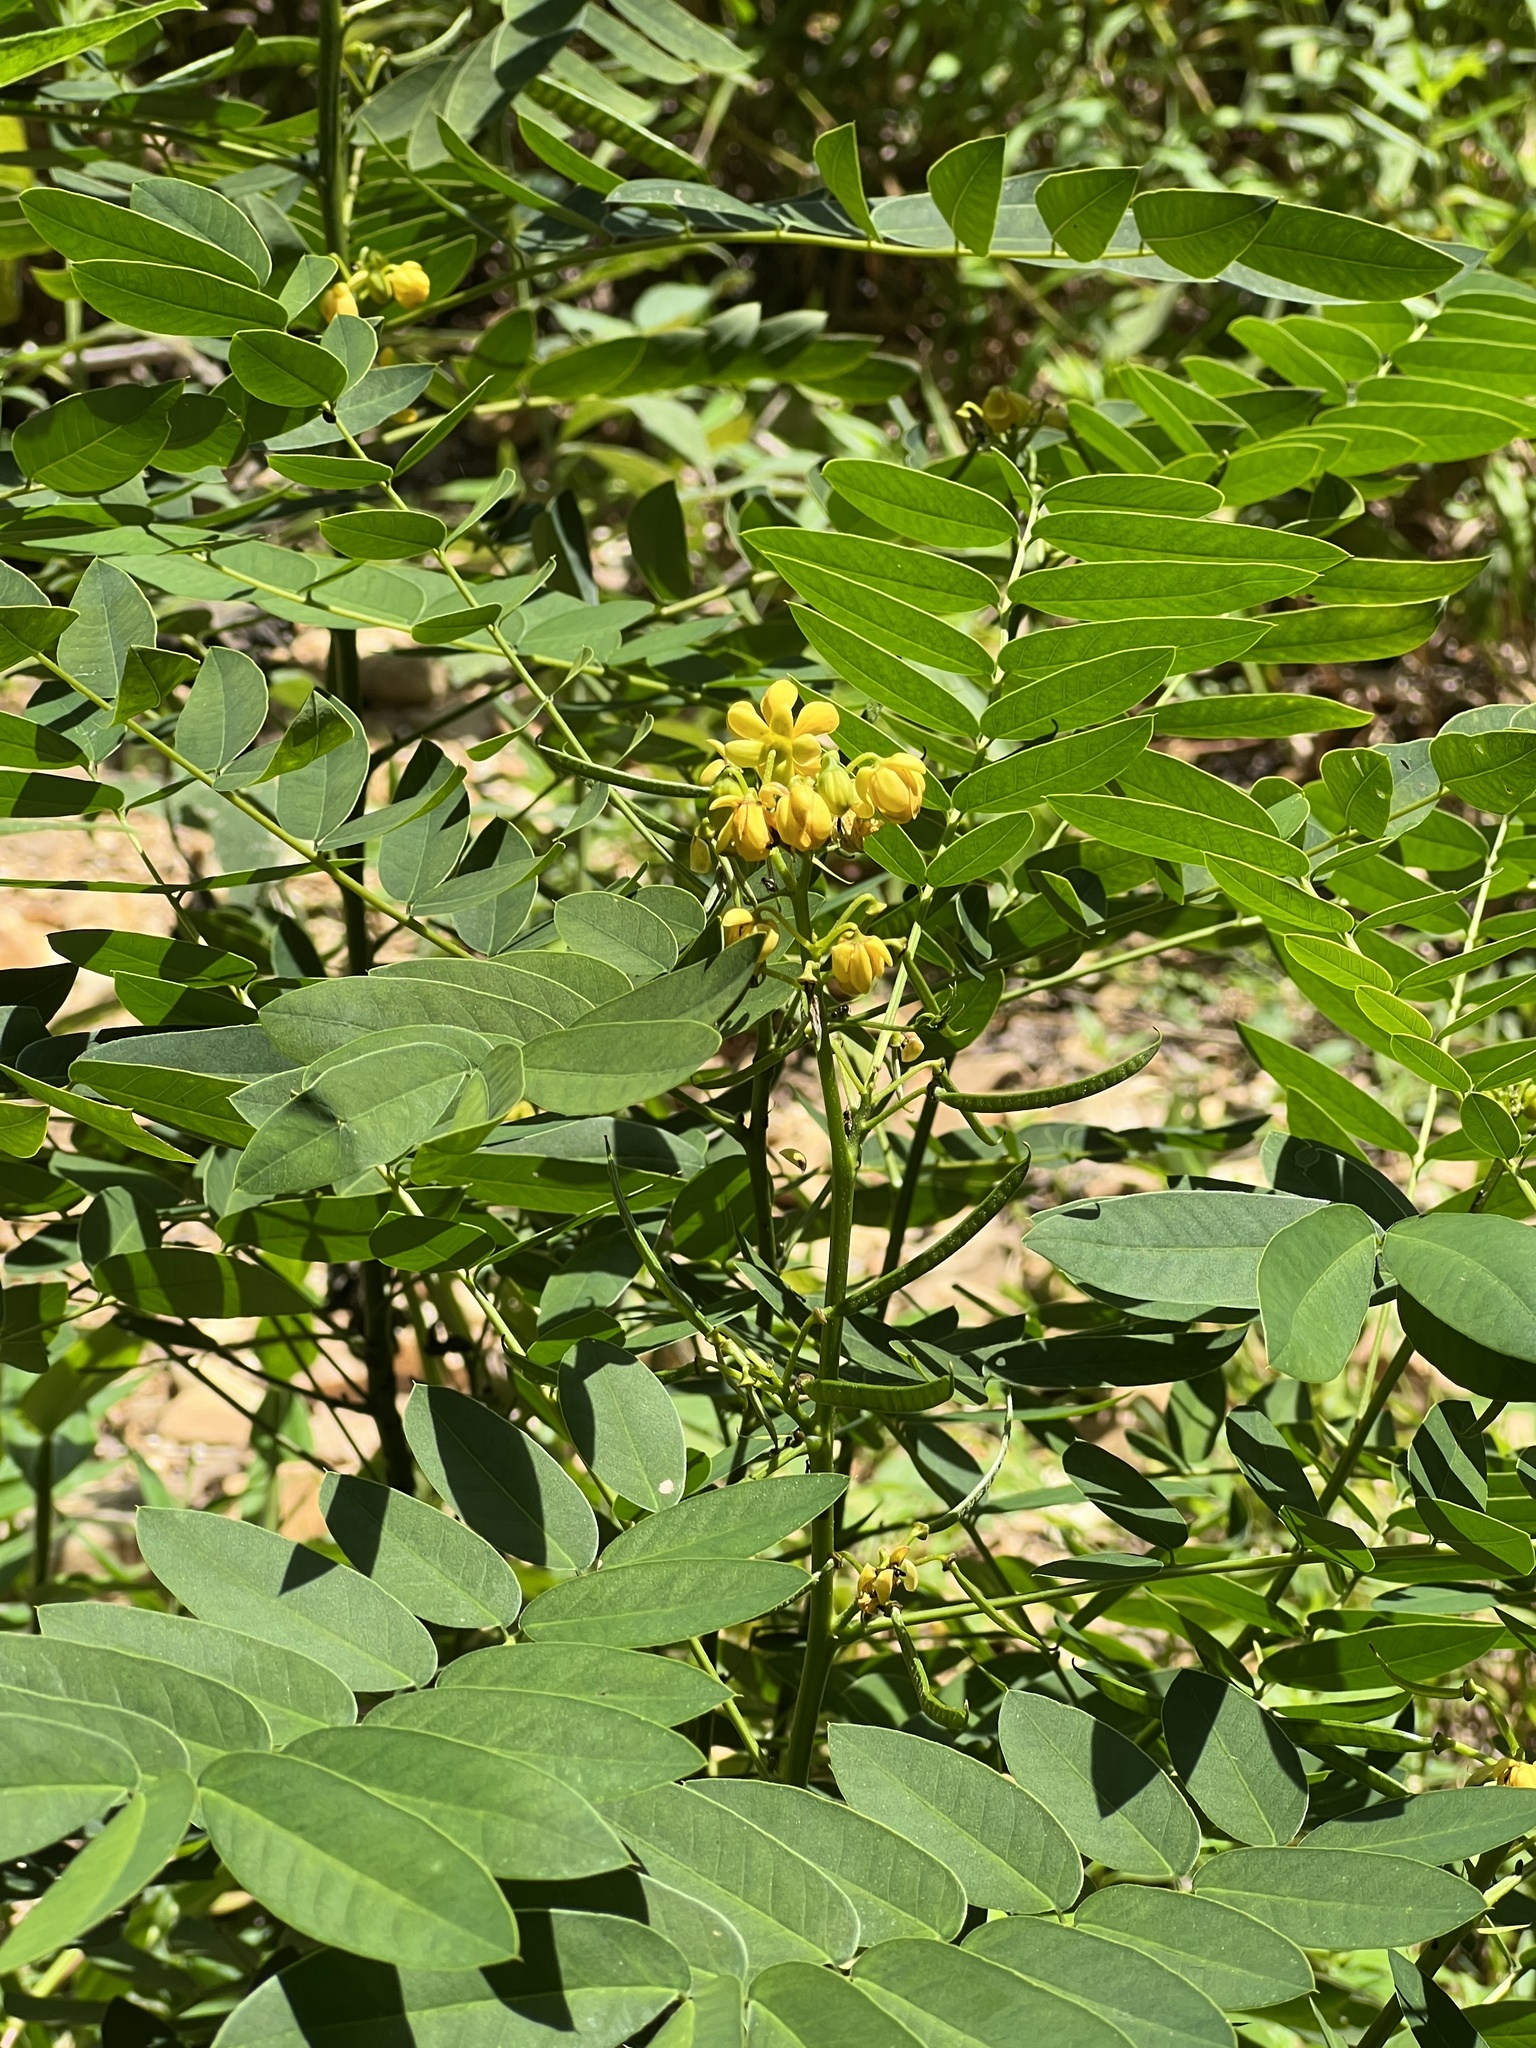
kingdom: Plantae
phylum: Tracheophyta
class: Magnoliopsida
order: Fabales
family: Fabaceae
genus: Senna
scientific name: Senna marilandica
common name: American senna
